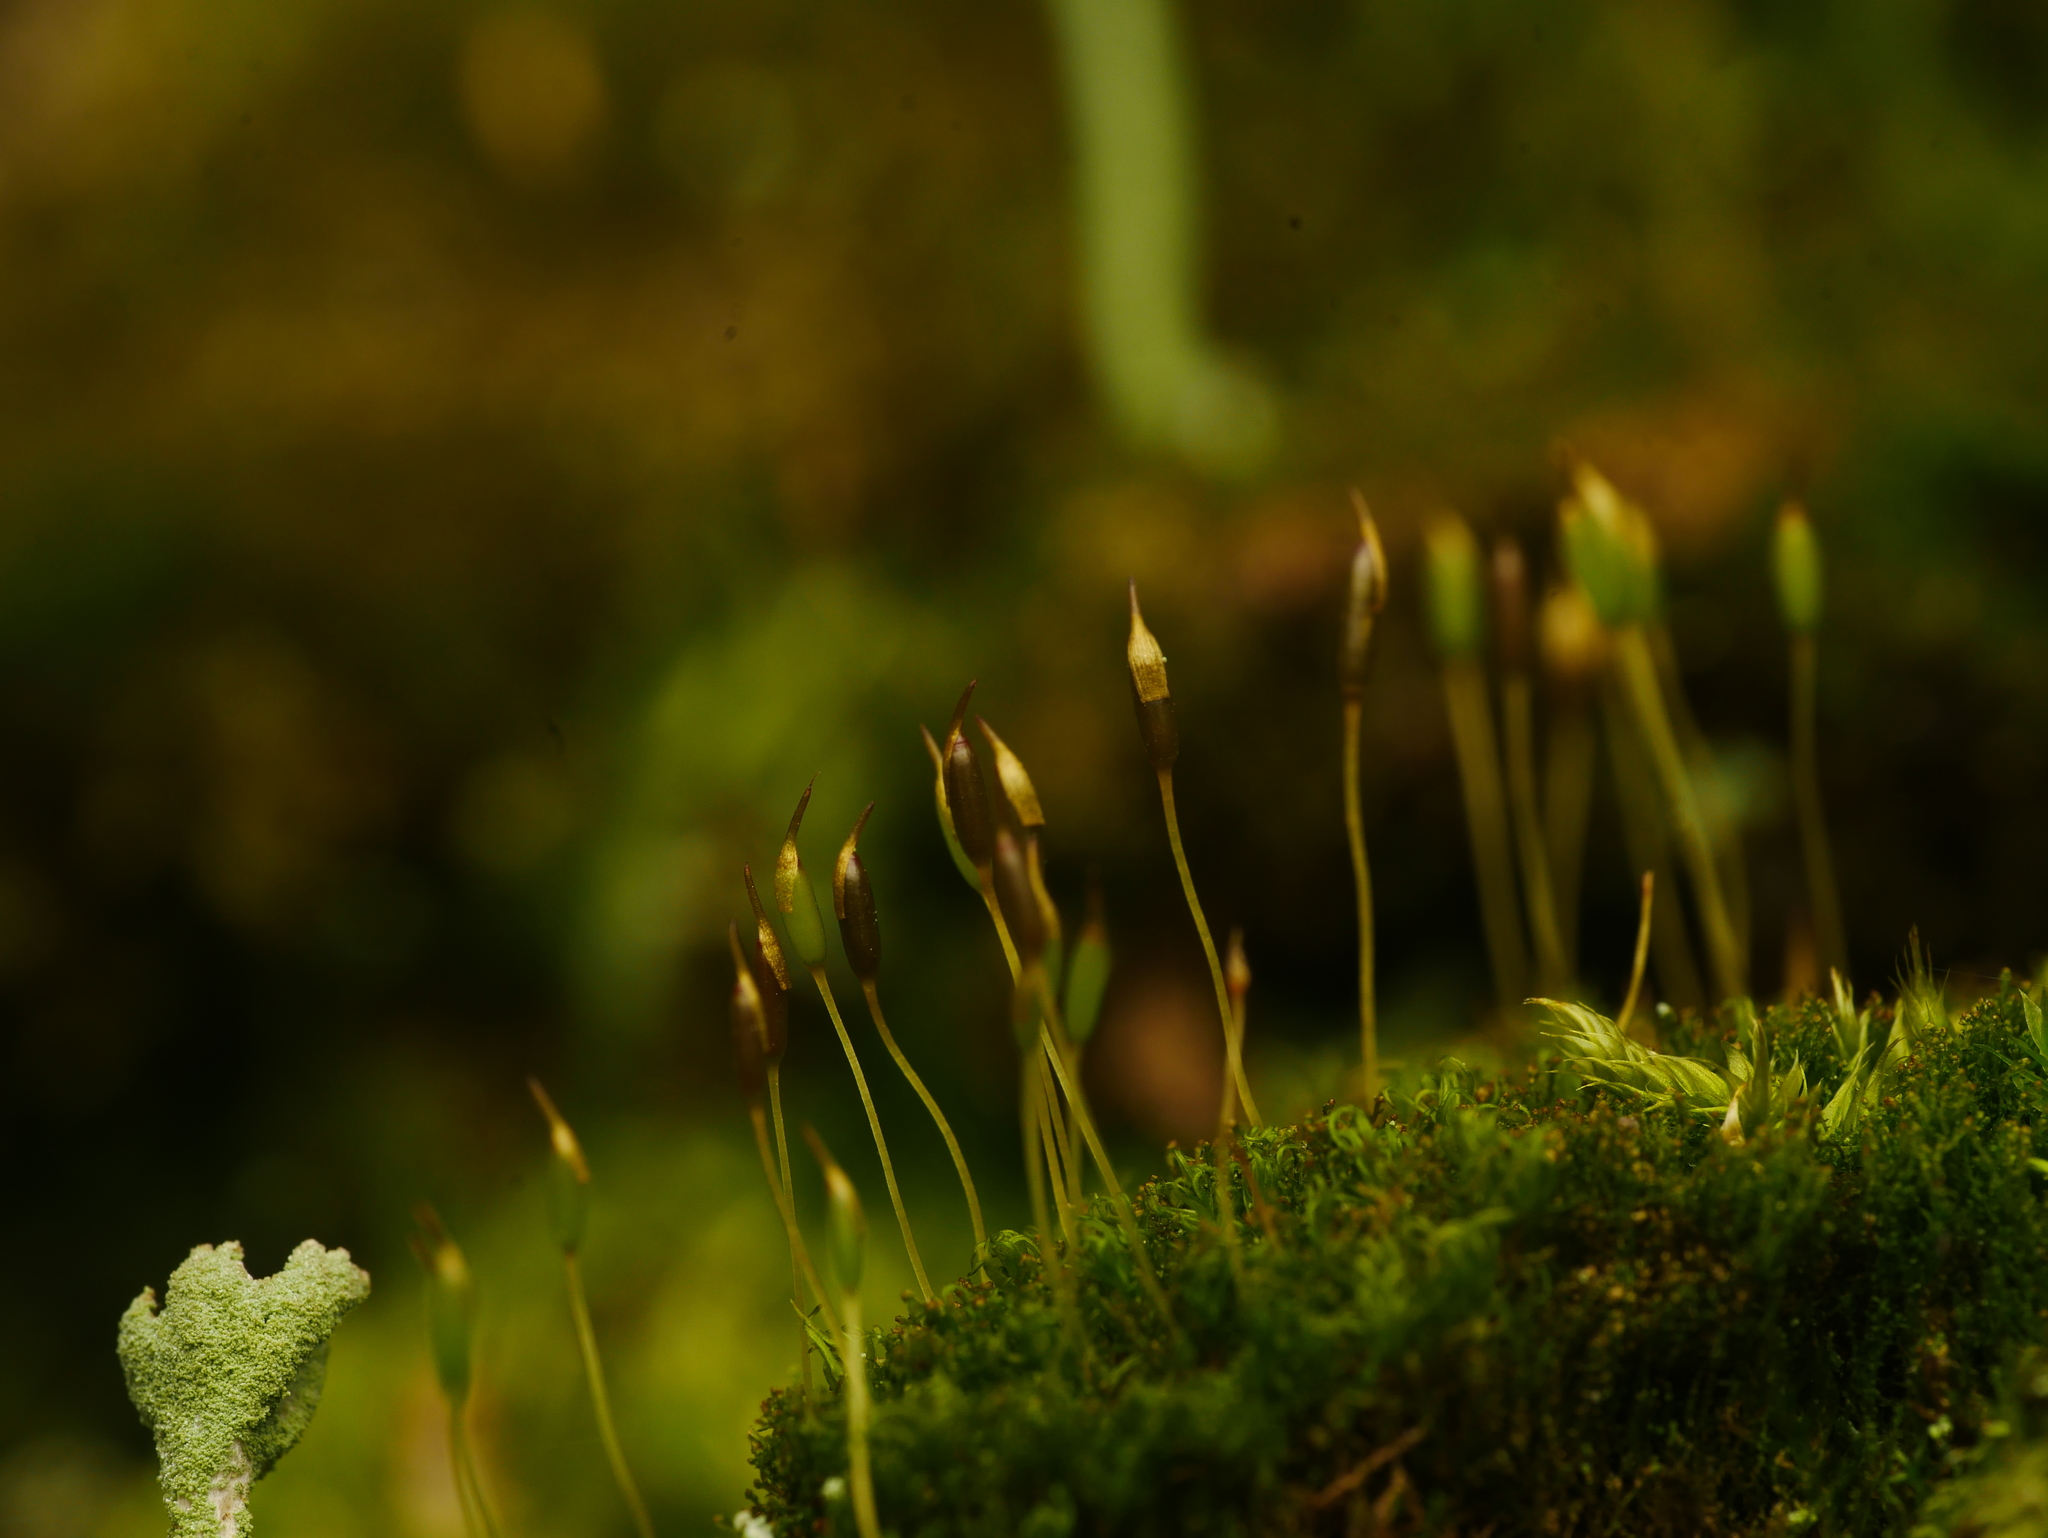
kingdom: Plantae
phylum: Bryophyta
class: Bryopsida
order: Dicranales
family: Rhabdoweisiaceae
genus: Dicranoweisia
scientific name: Dicranoweisia cirrata
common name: Common pincushion
